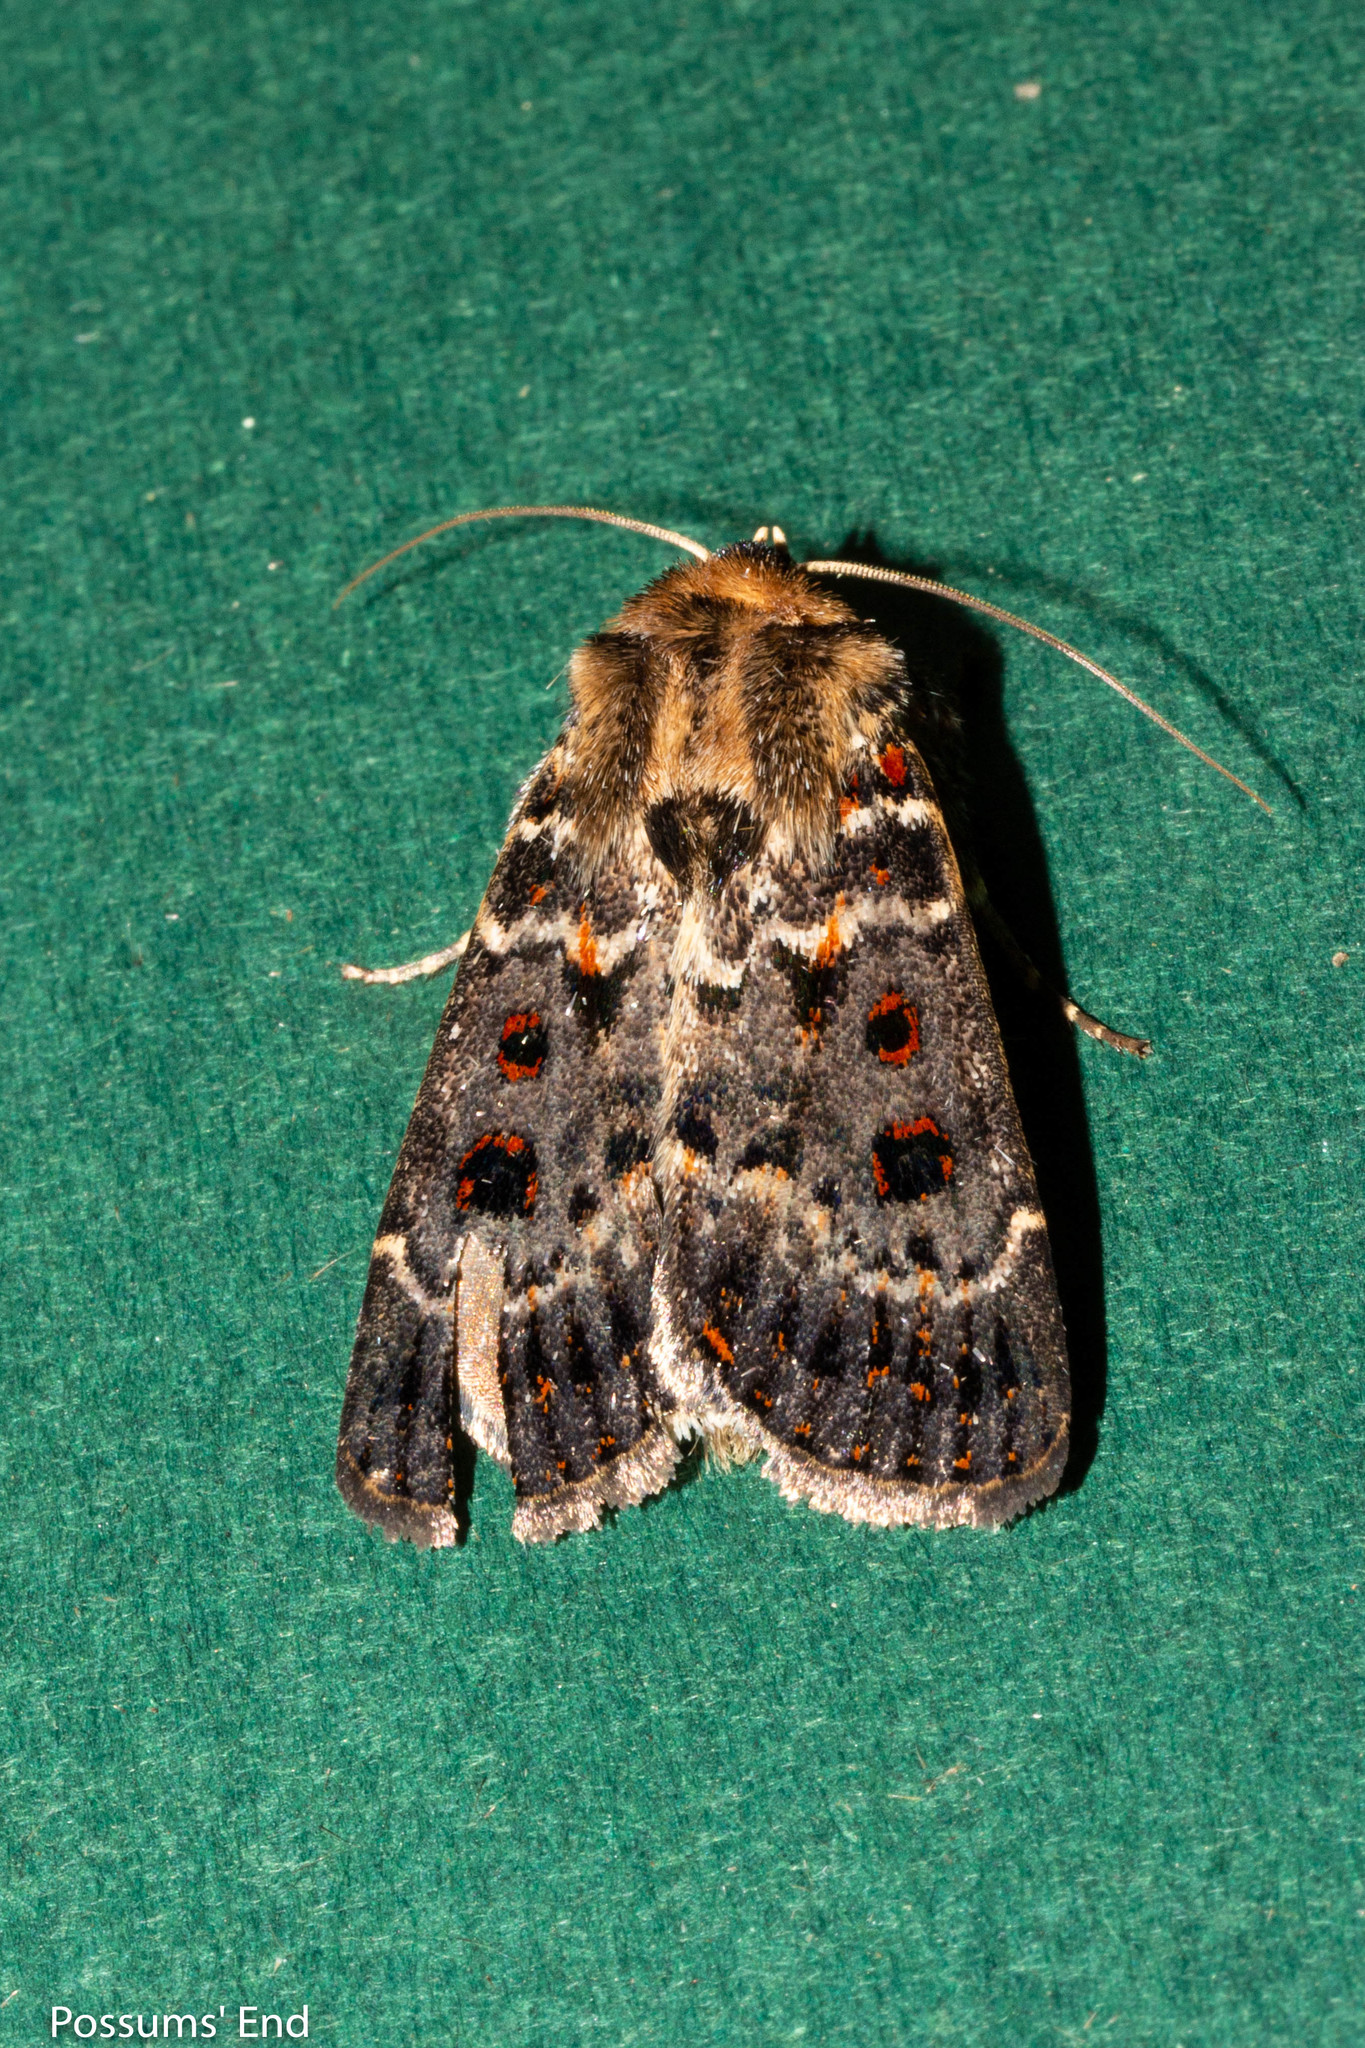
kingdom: Animalia
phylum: Arthropoda
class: Insecta
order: Lepidoptera
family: Noctuidae
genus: Proteuxoa
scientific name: Proteuxoa sanguinipuncta
